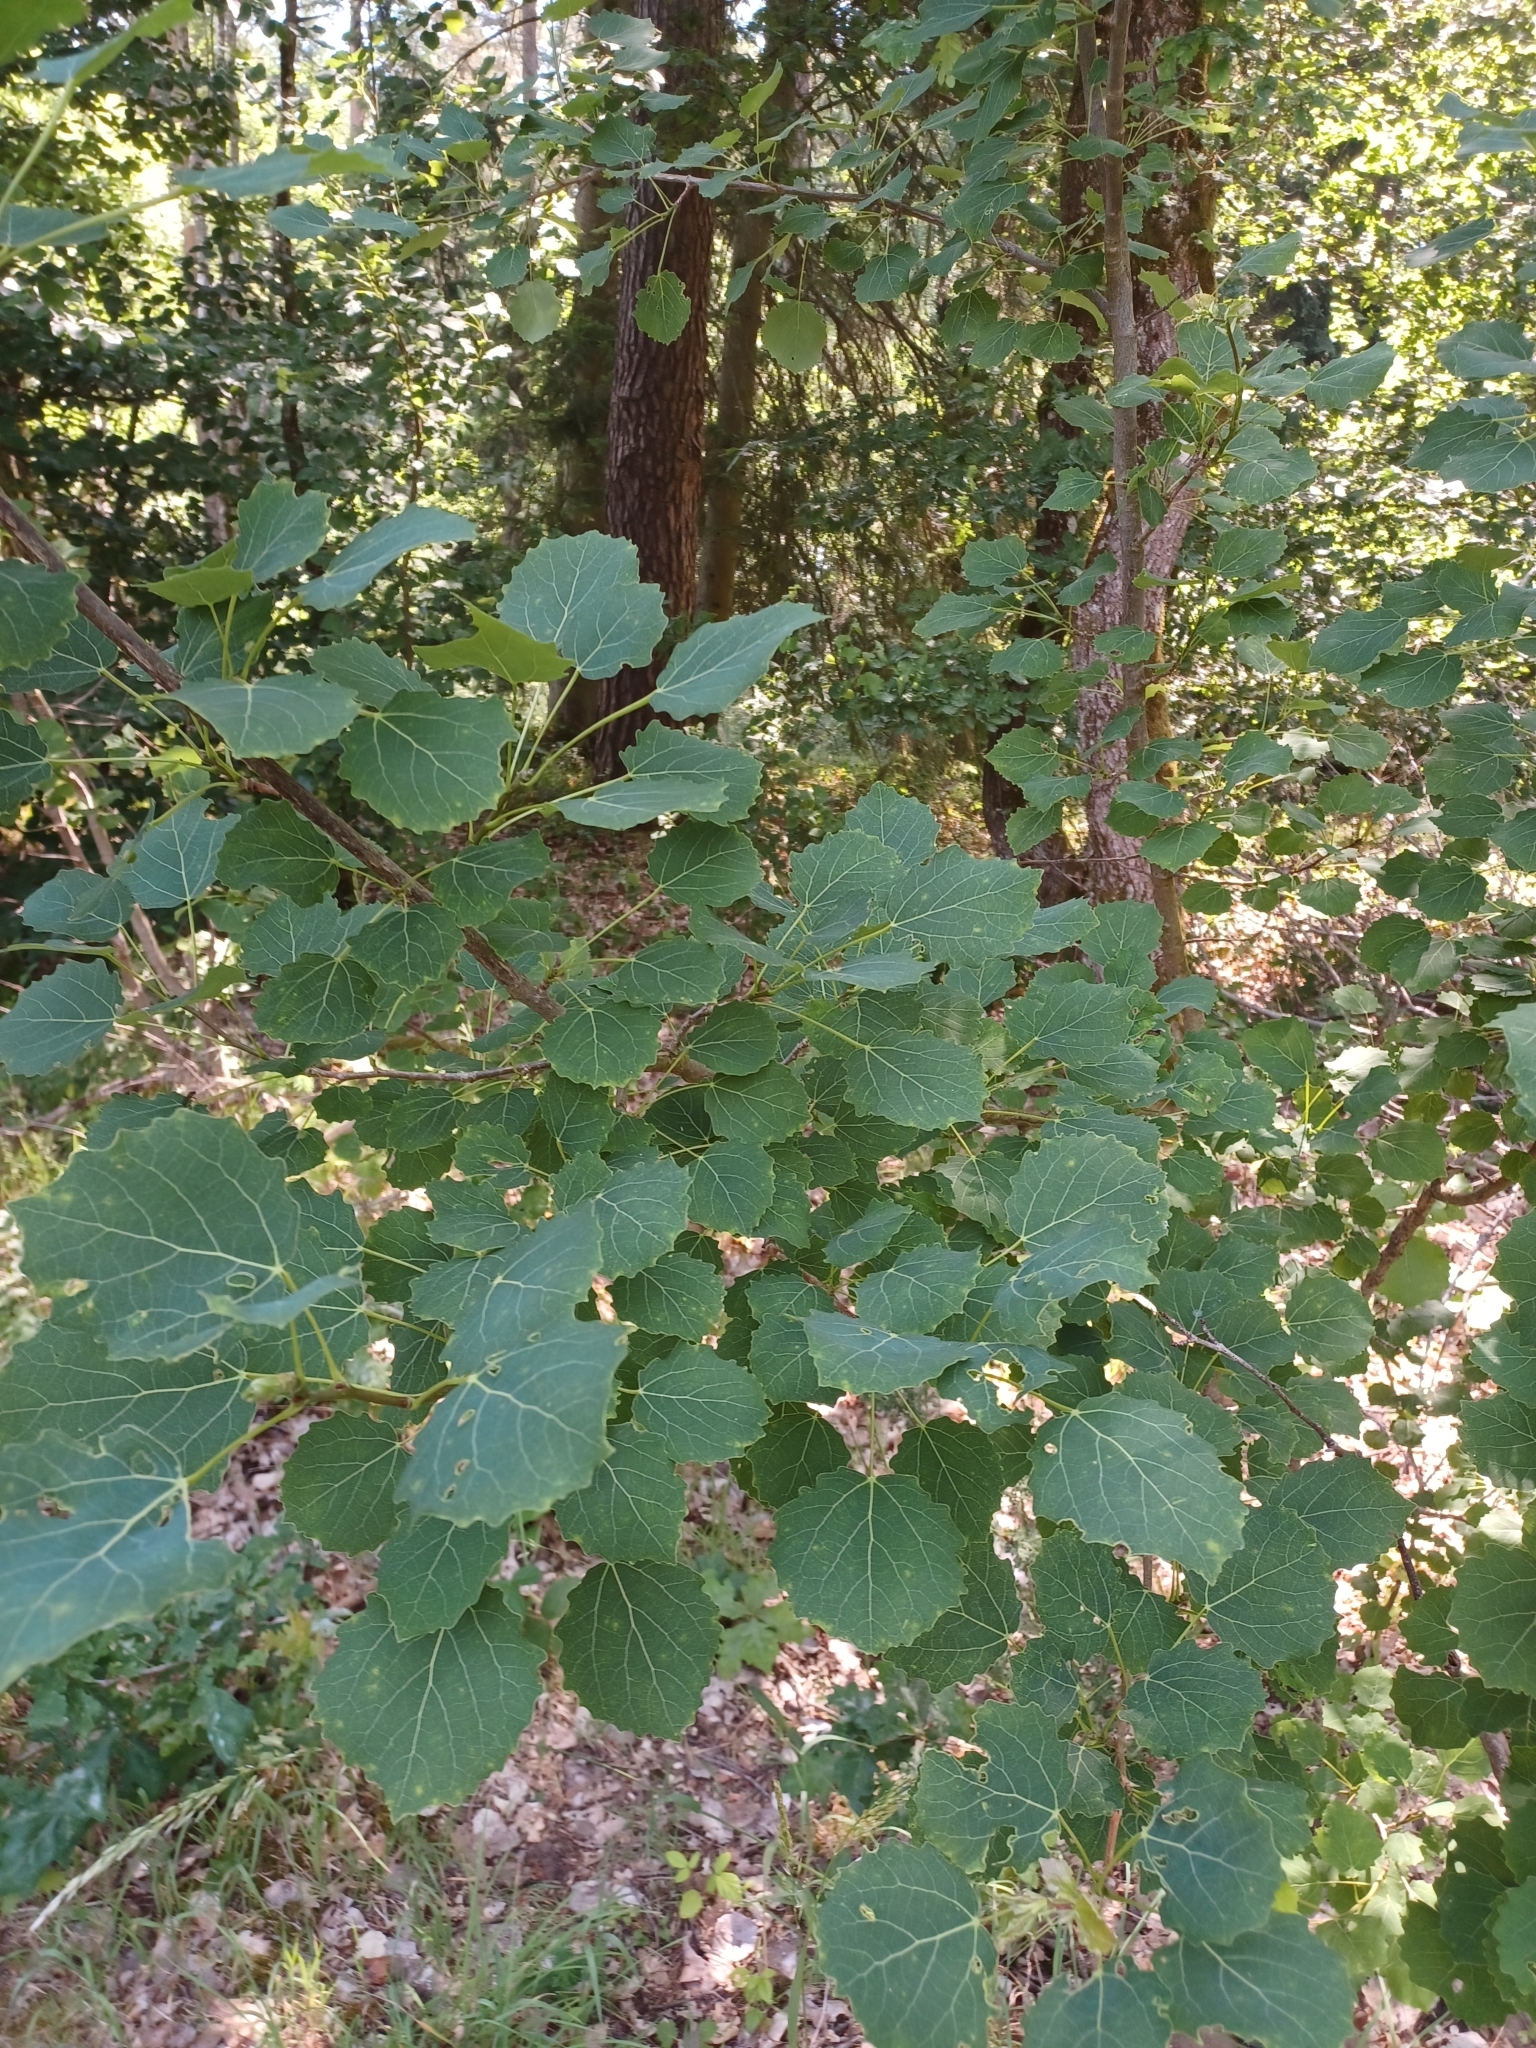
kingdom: Plantae
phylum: Tracheophyta
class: Magnoliopsida
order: Malpighiales
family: Salicaceae
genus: Populus
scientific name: Populus tremula
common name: European aspen
